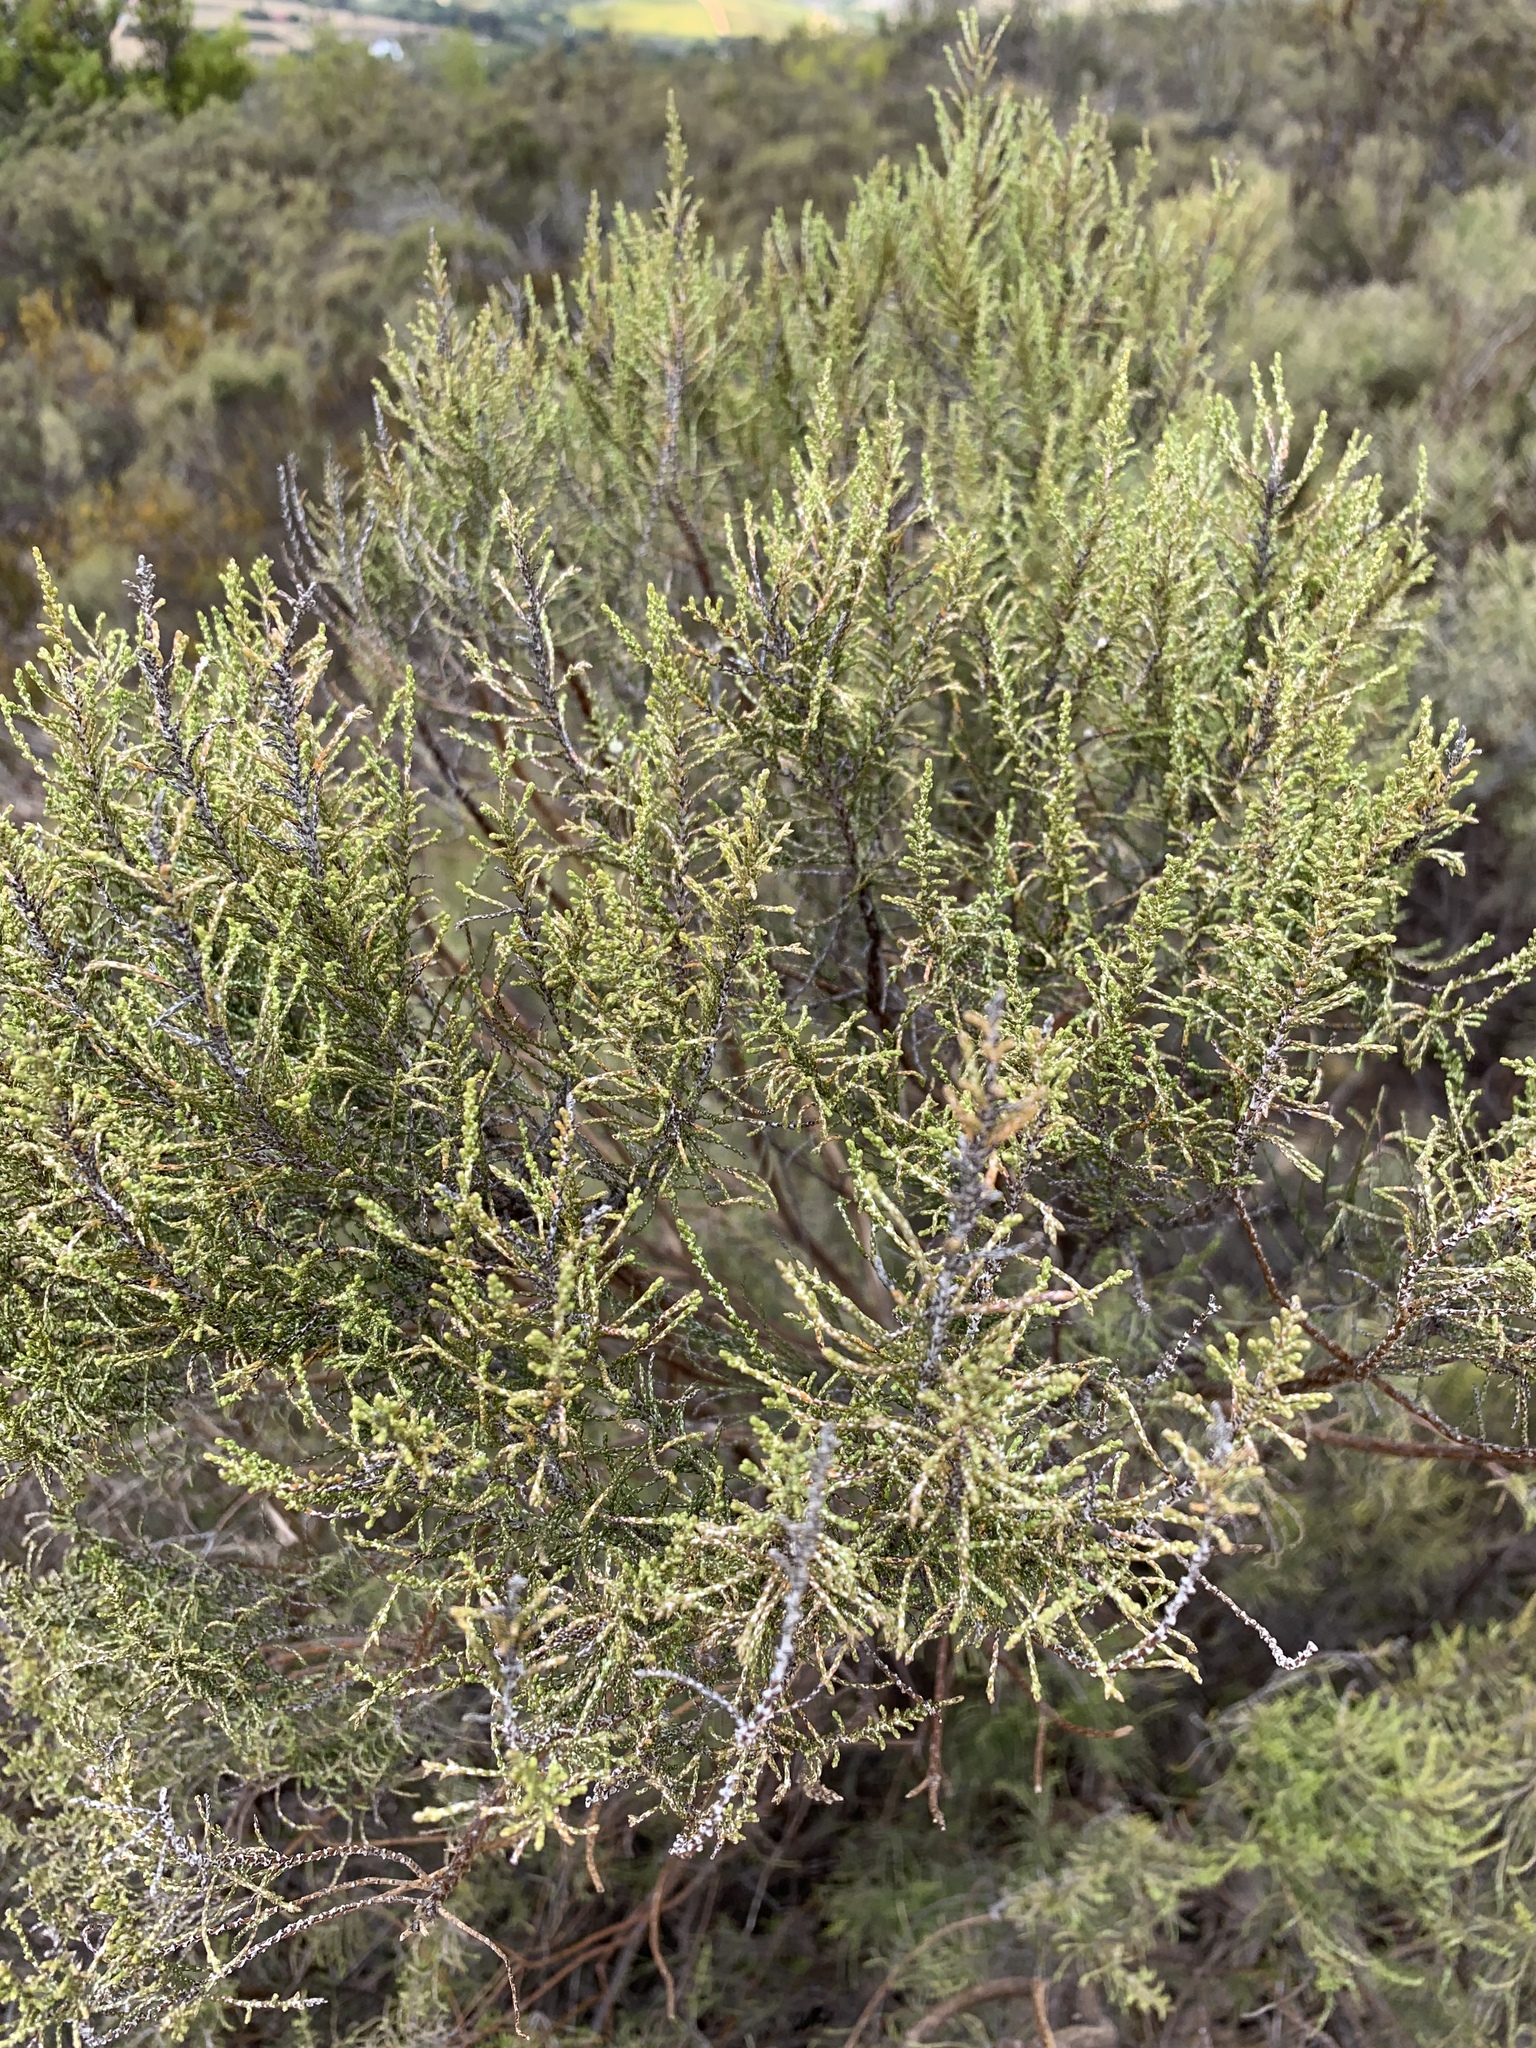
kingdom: Plantae
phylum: Tracheophyta
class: Magnoliopsida
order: Asterales
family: Asteraceae
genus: Dicerothamnus
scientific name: Dicerothamnus rhinocerotis
